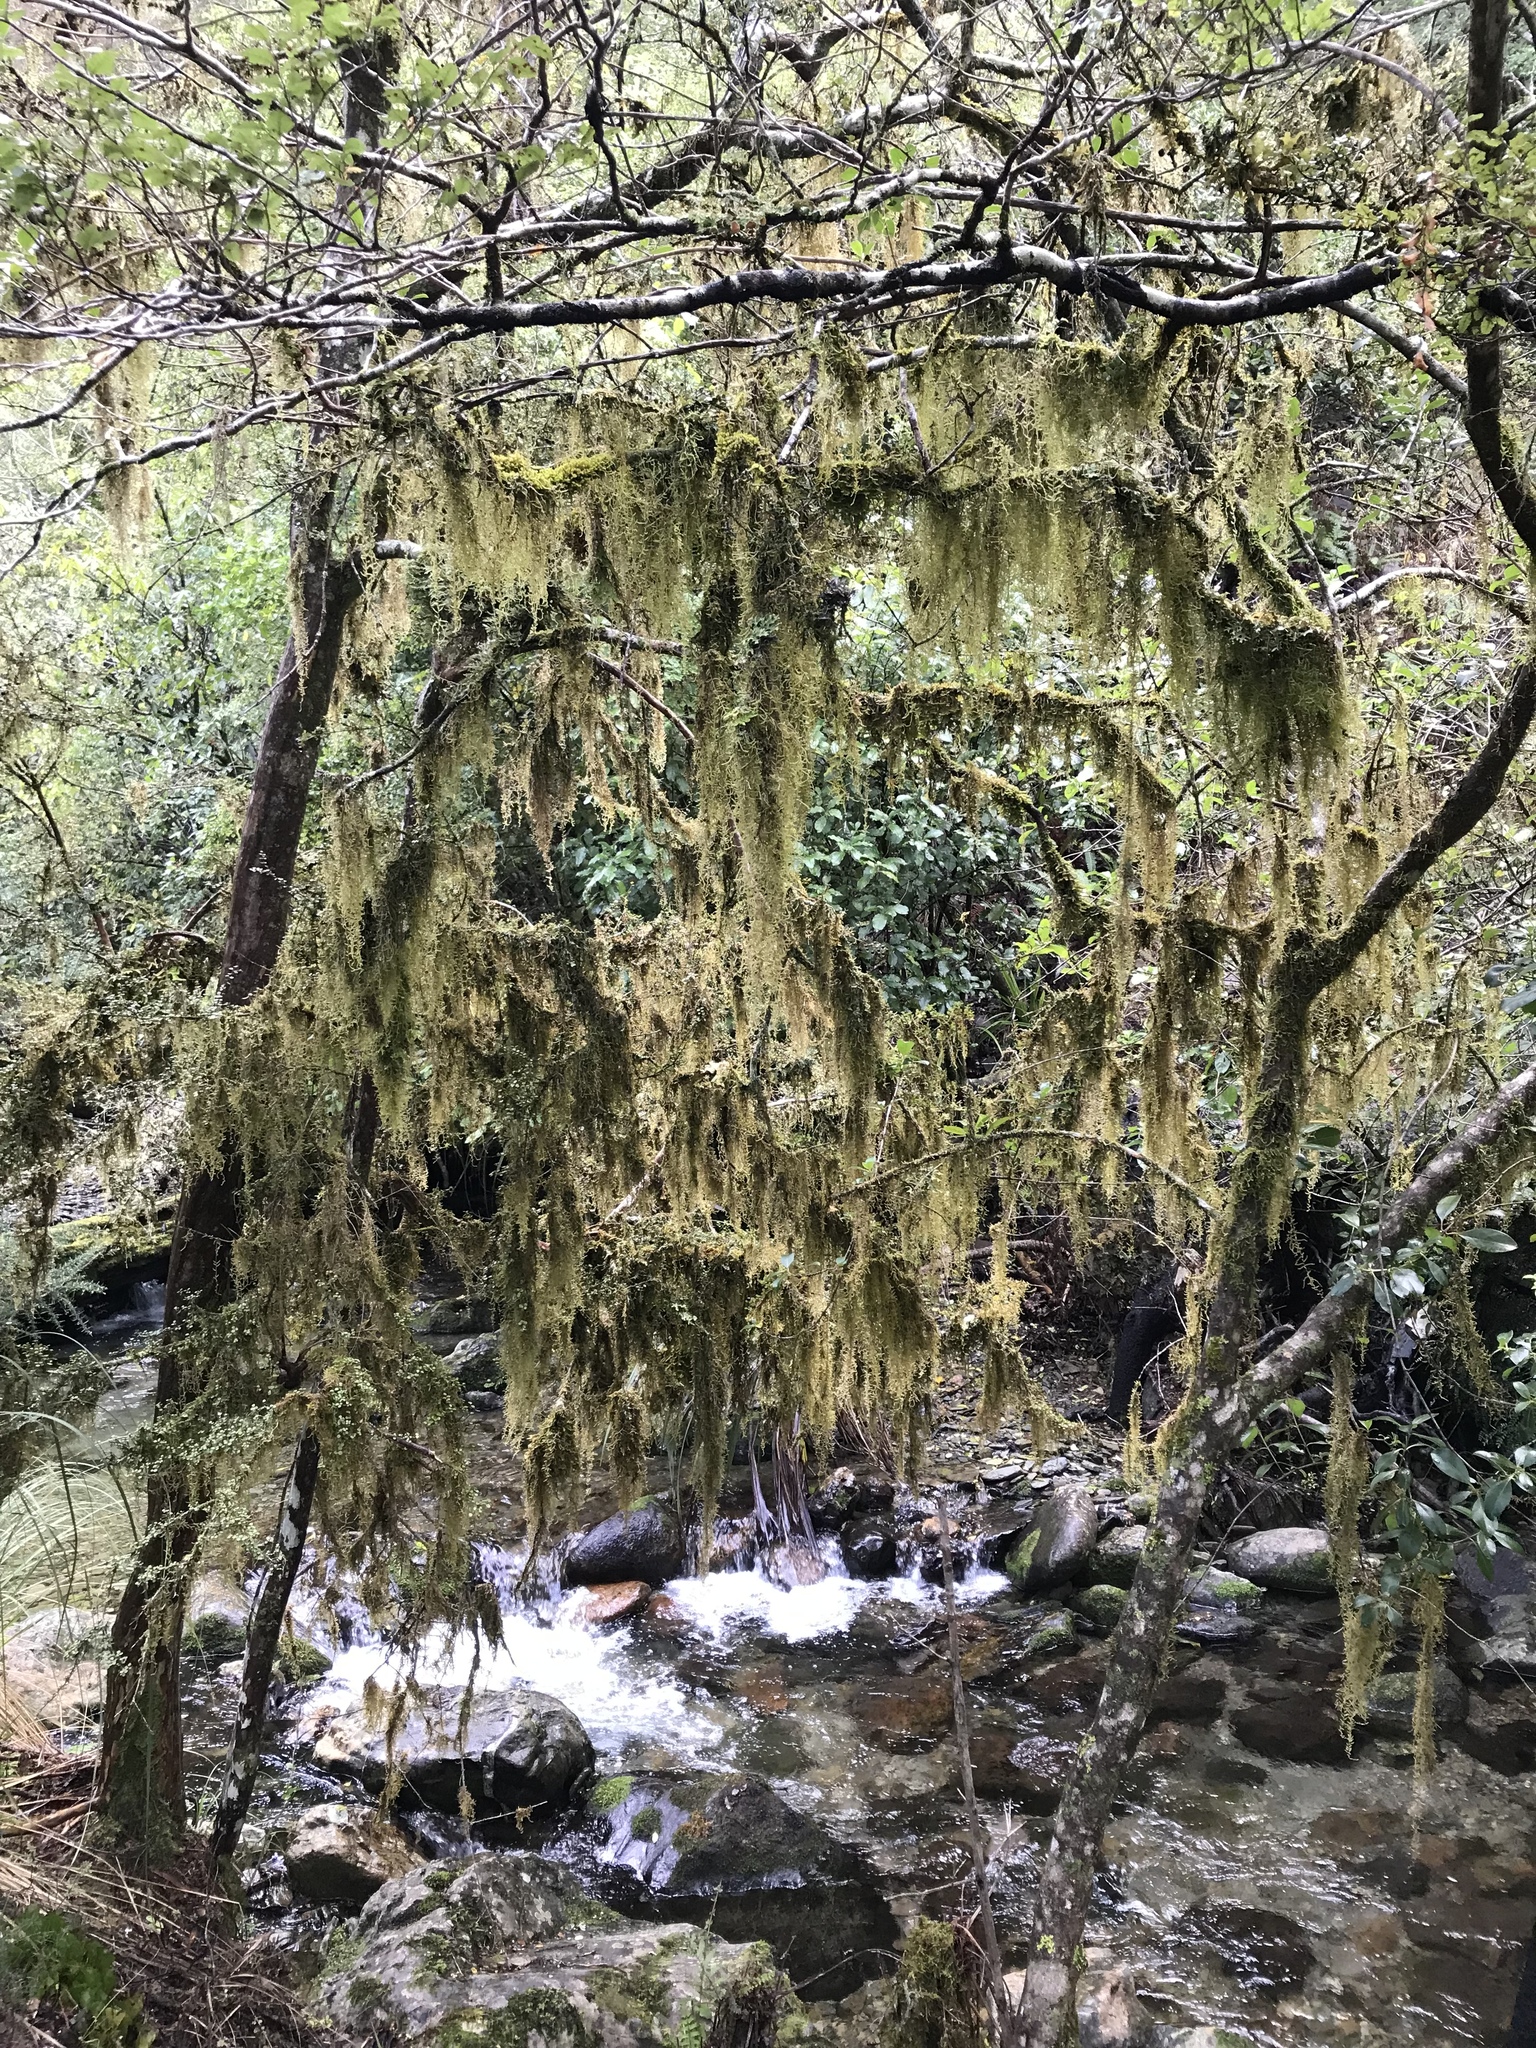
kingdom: Plantae
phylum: Bryophyta
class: Bryopsida
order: Hypnales
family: Lembophyllaceae
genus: Weymouthia
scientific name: Weymouthia mollis
